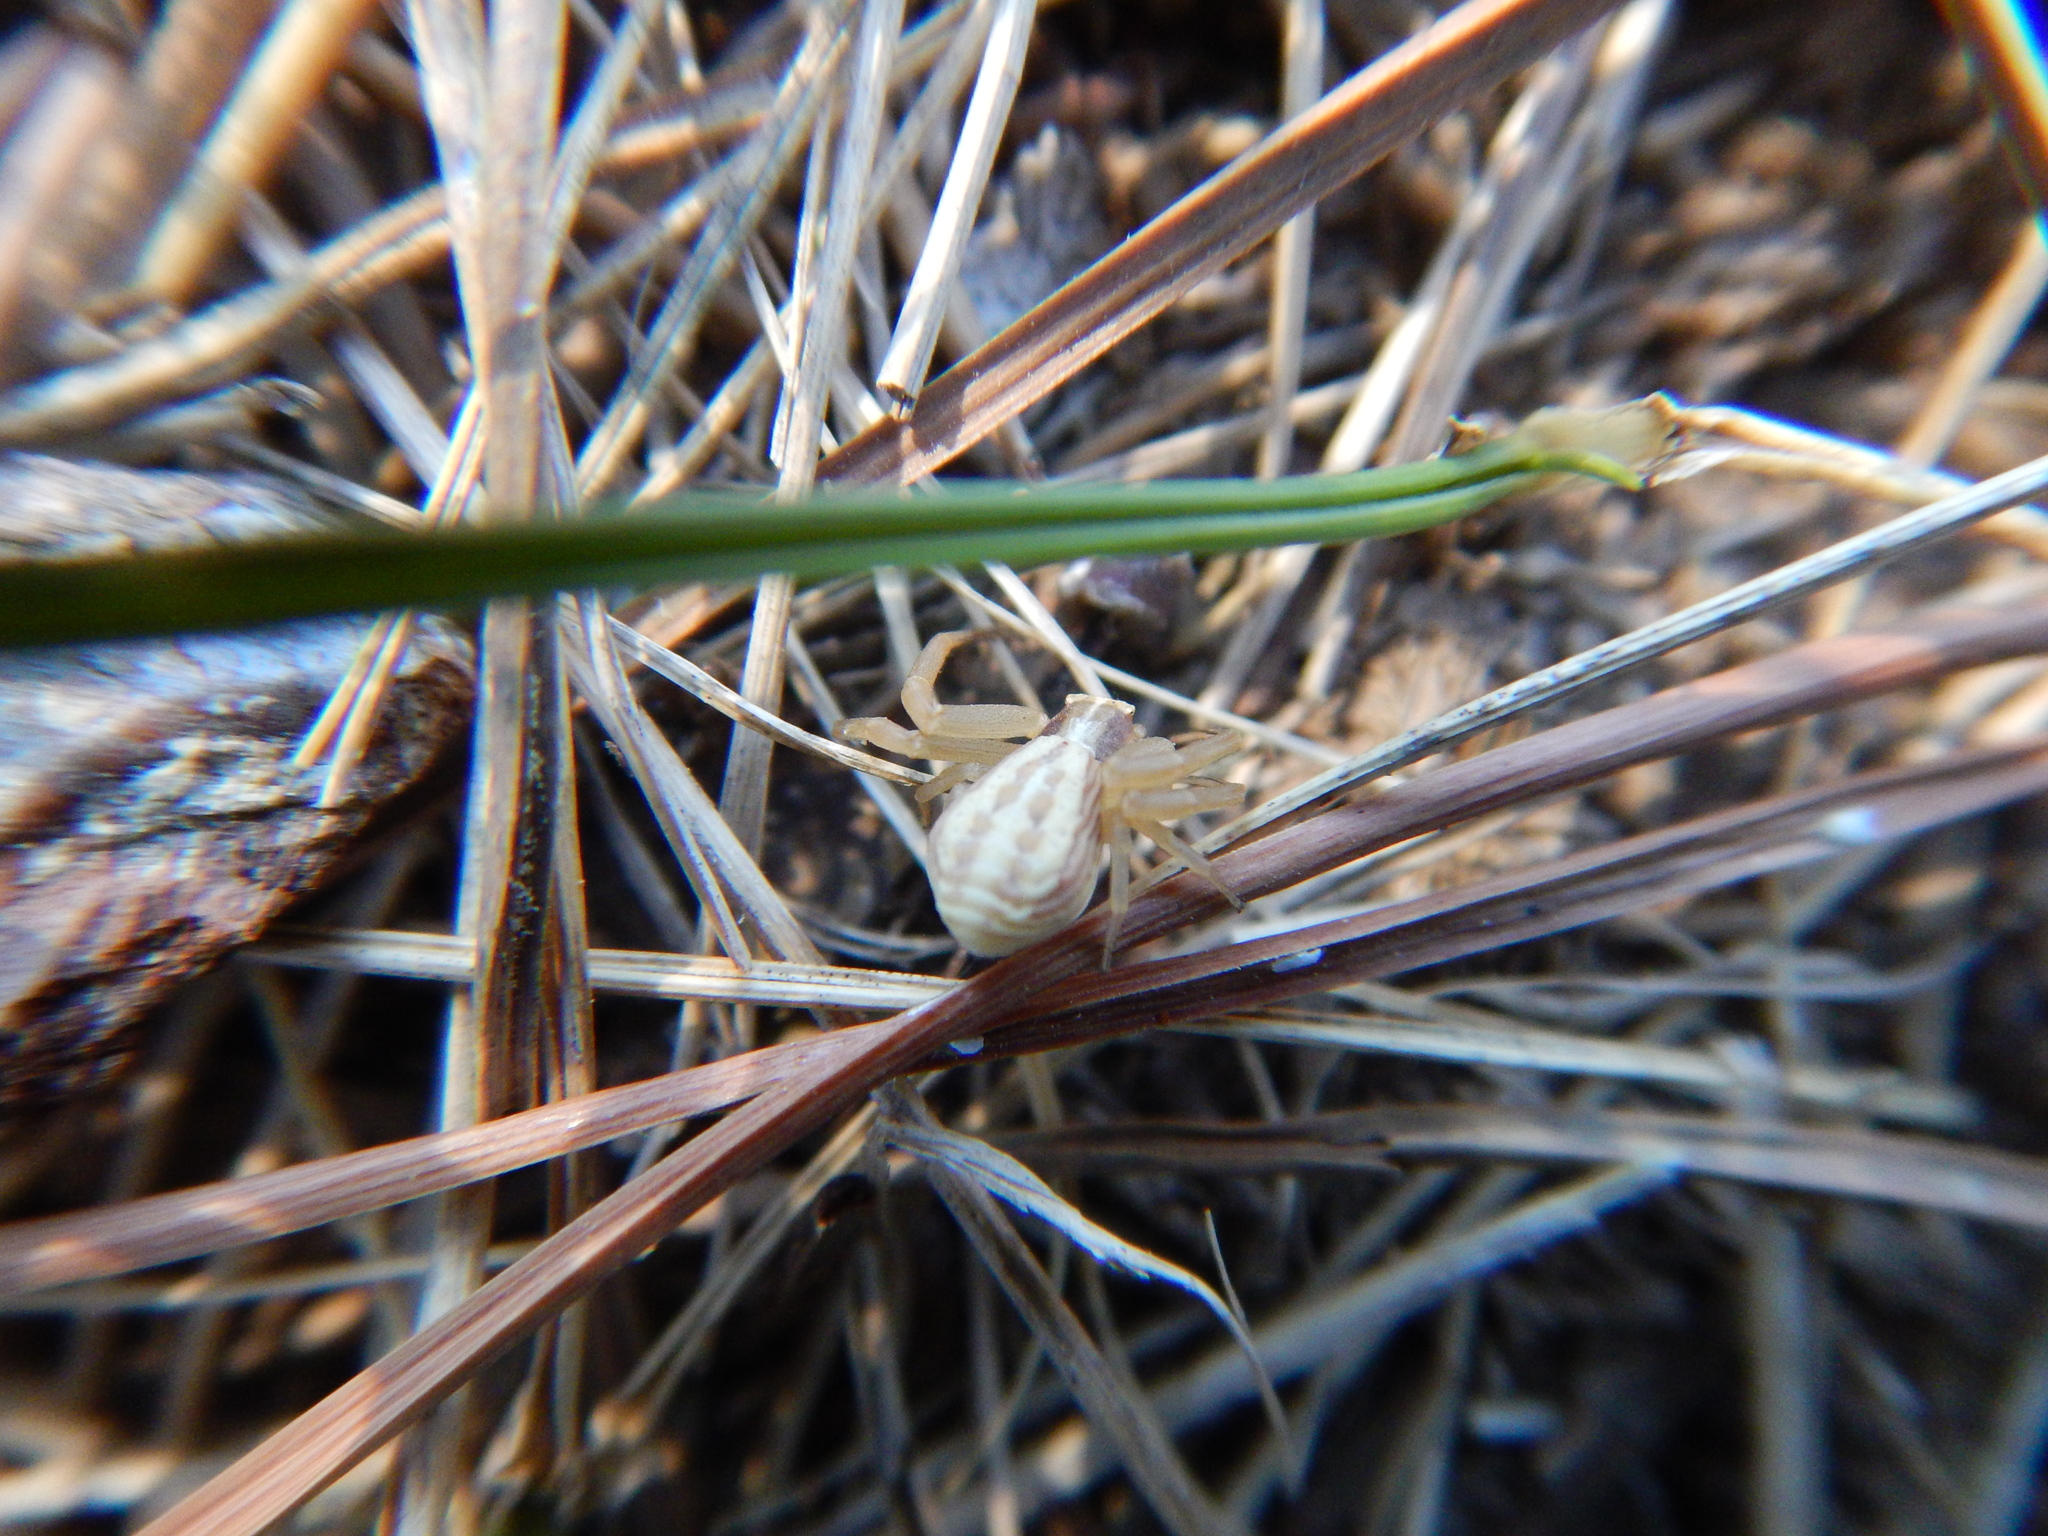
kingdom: Animalia
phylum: Arthropoda
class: Arachnida
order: Araneae
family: Thomisidae
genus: Runcinia
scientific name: Runcinia grammica
